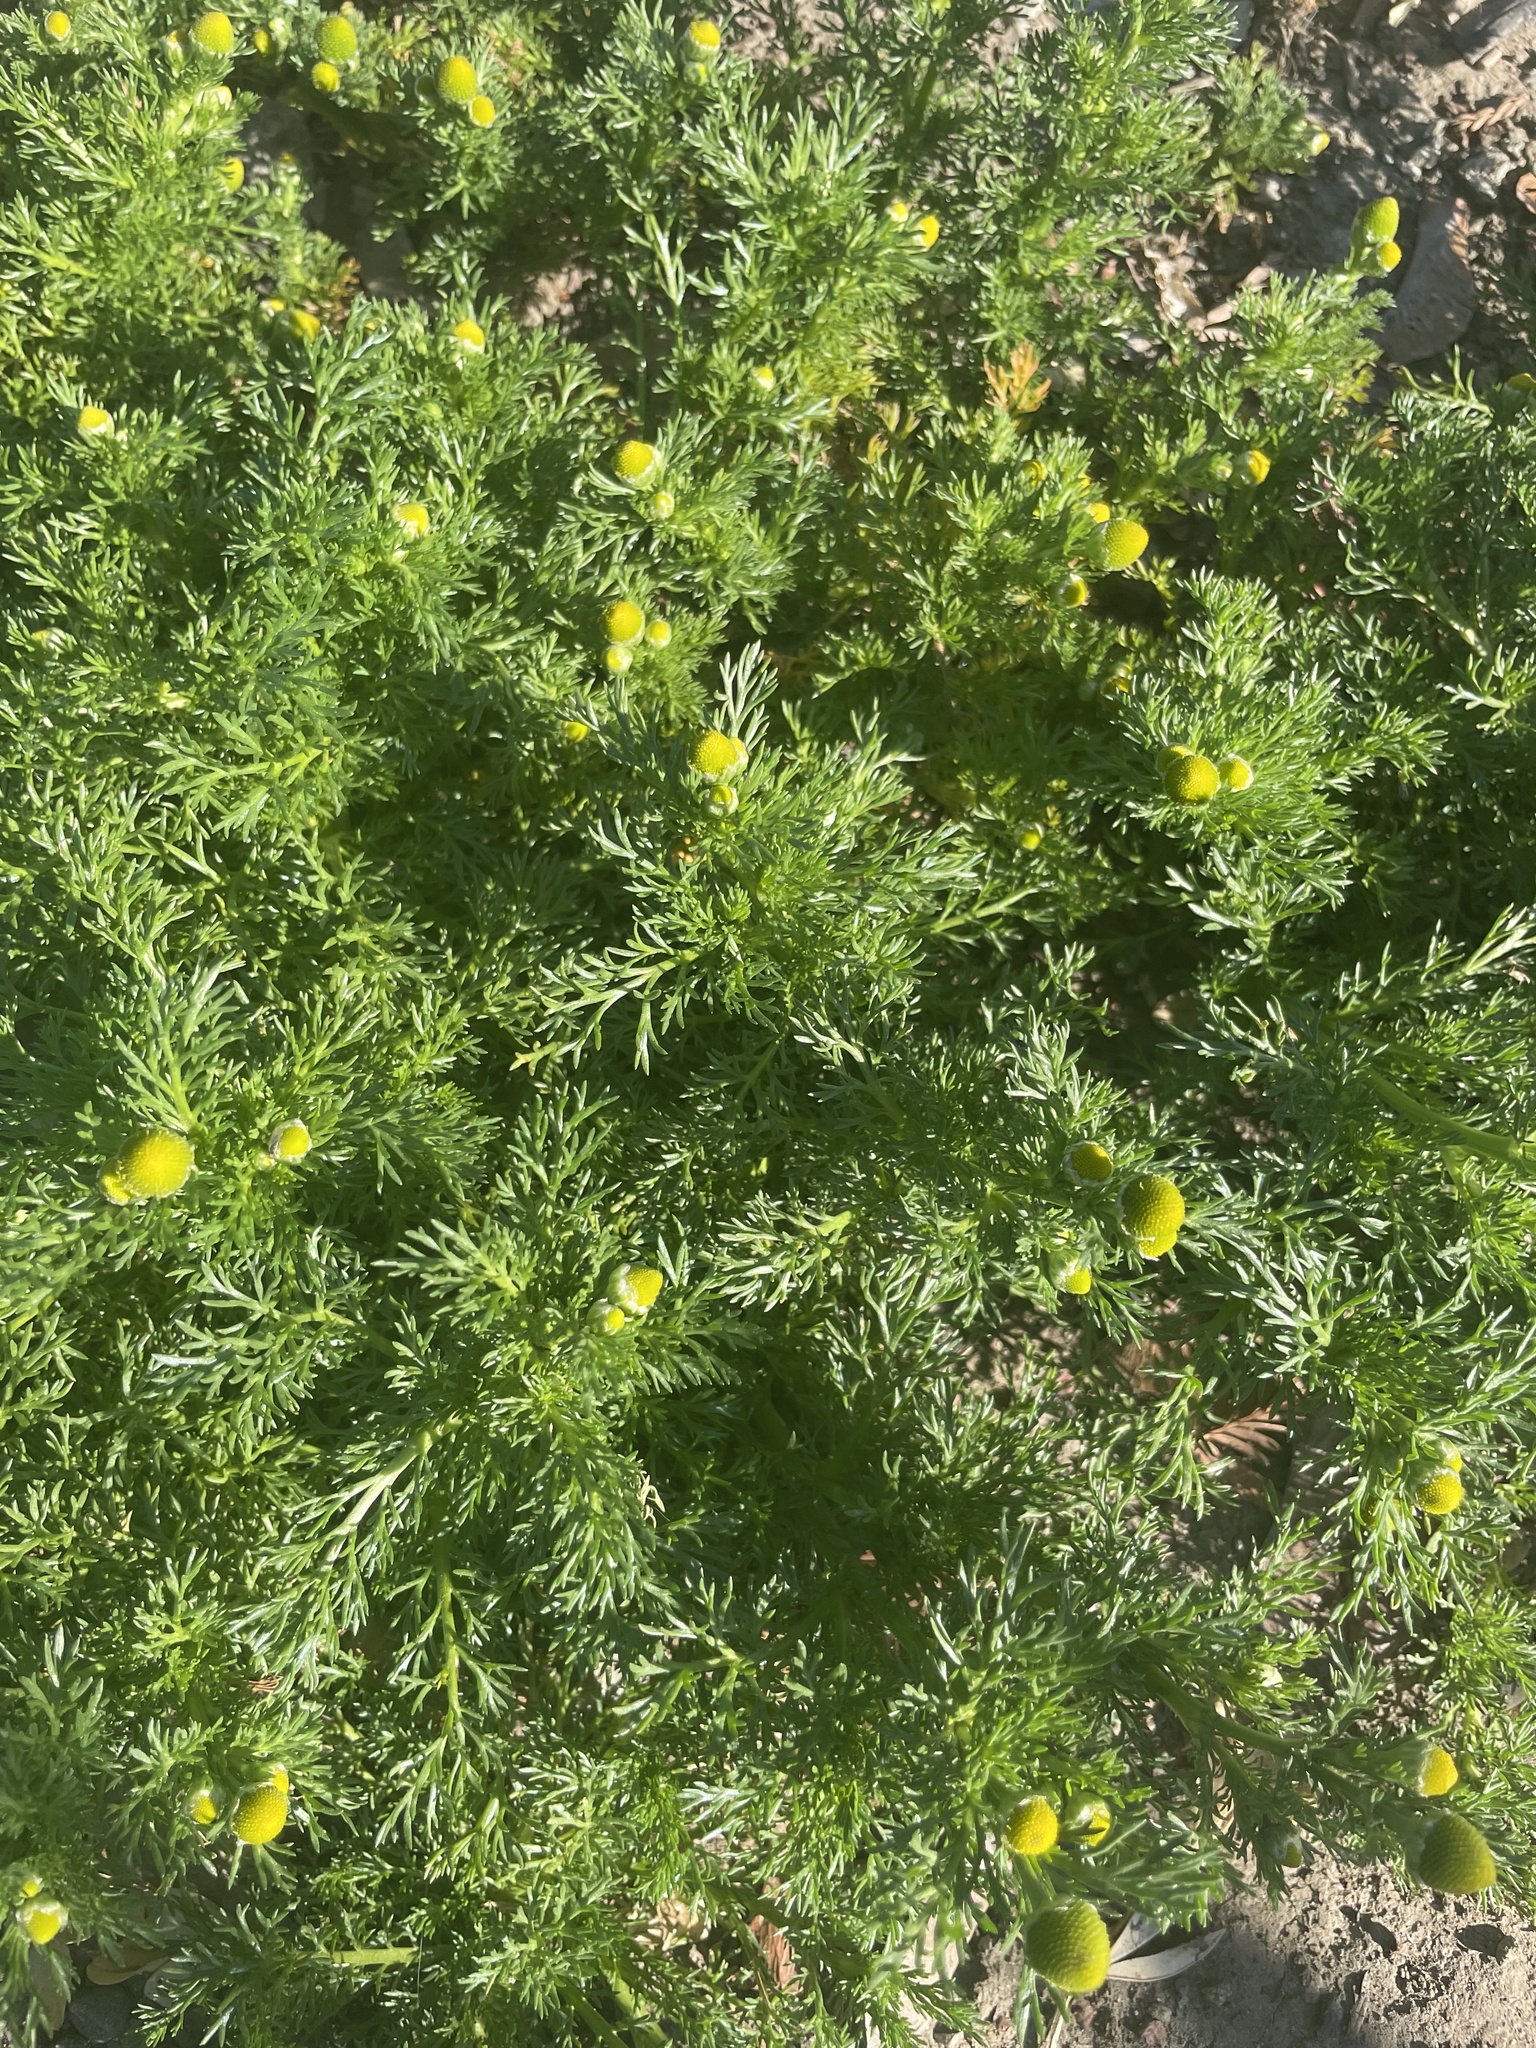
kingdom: Plantae
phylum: Tracheophyta
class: Magnoliopsida
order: Asterales
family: Asteraceae
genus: Matricaria
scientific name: Matricaria discoidea
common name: Disc mayweed
